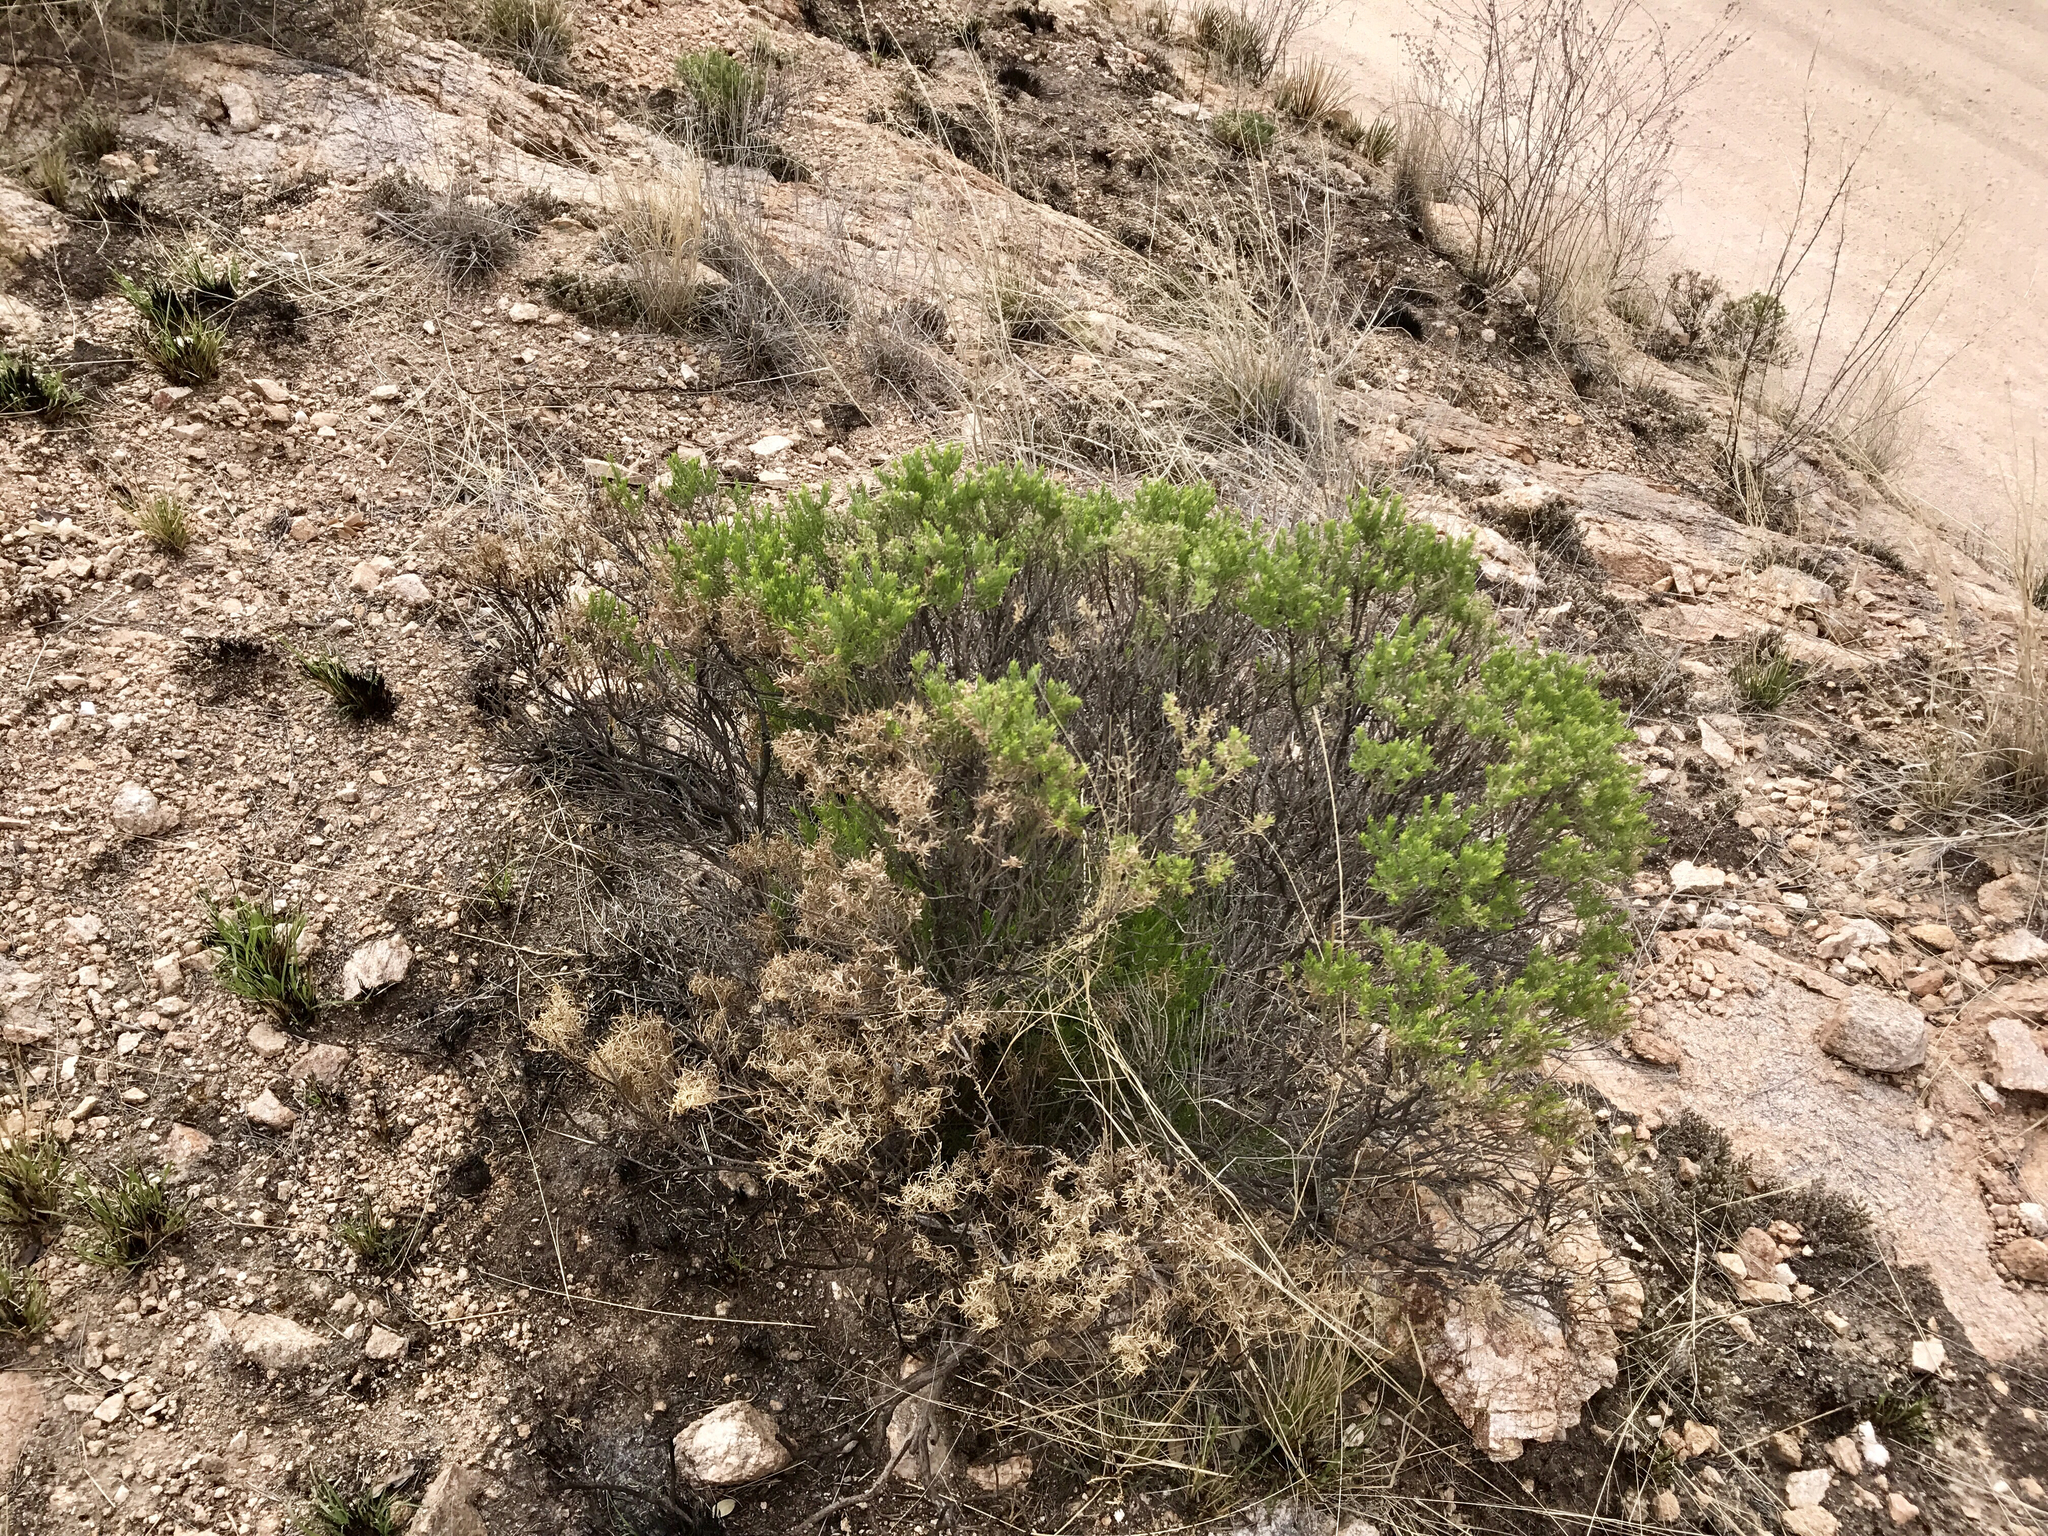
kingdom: Plantae
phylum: Tracheophyta
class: Magnoliopsida
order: Asterales
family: Asteraceae
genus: Ericameria
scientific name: Ericameria laricifolia
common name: Turpentine-bush
